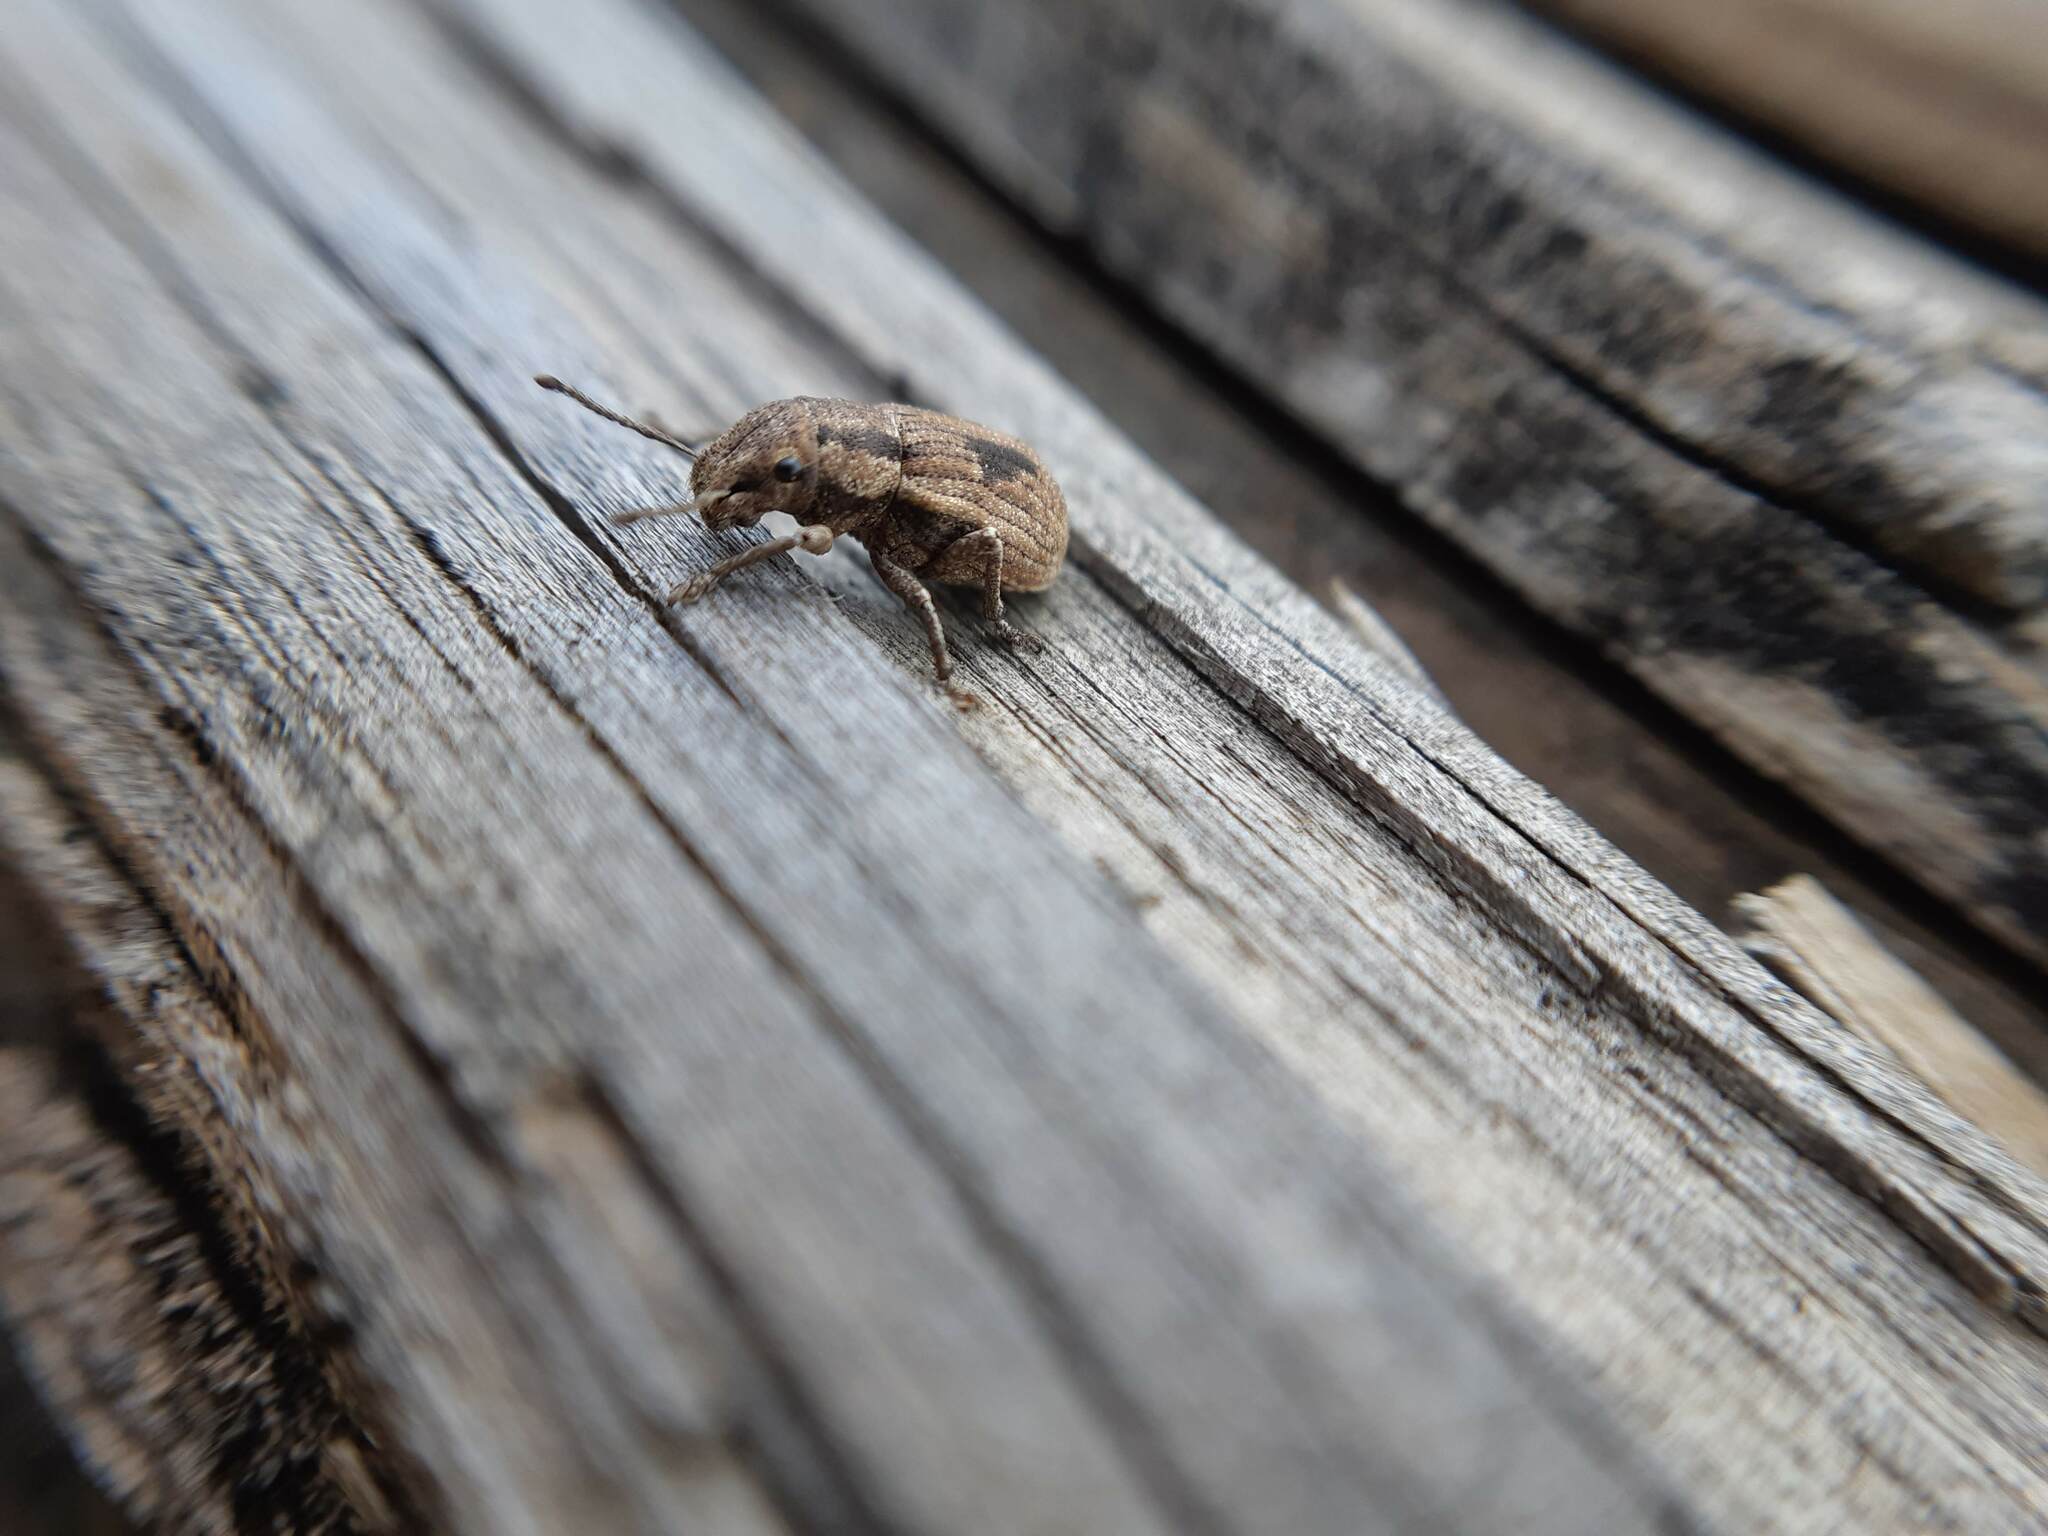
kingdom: Animalia
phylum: Arthropoda
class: Insecta
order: Coleoptera
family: Curculionidae
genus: Eurymetopus
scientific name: Eurymetopus birabeni
